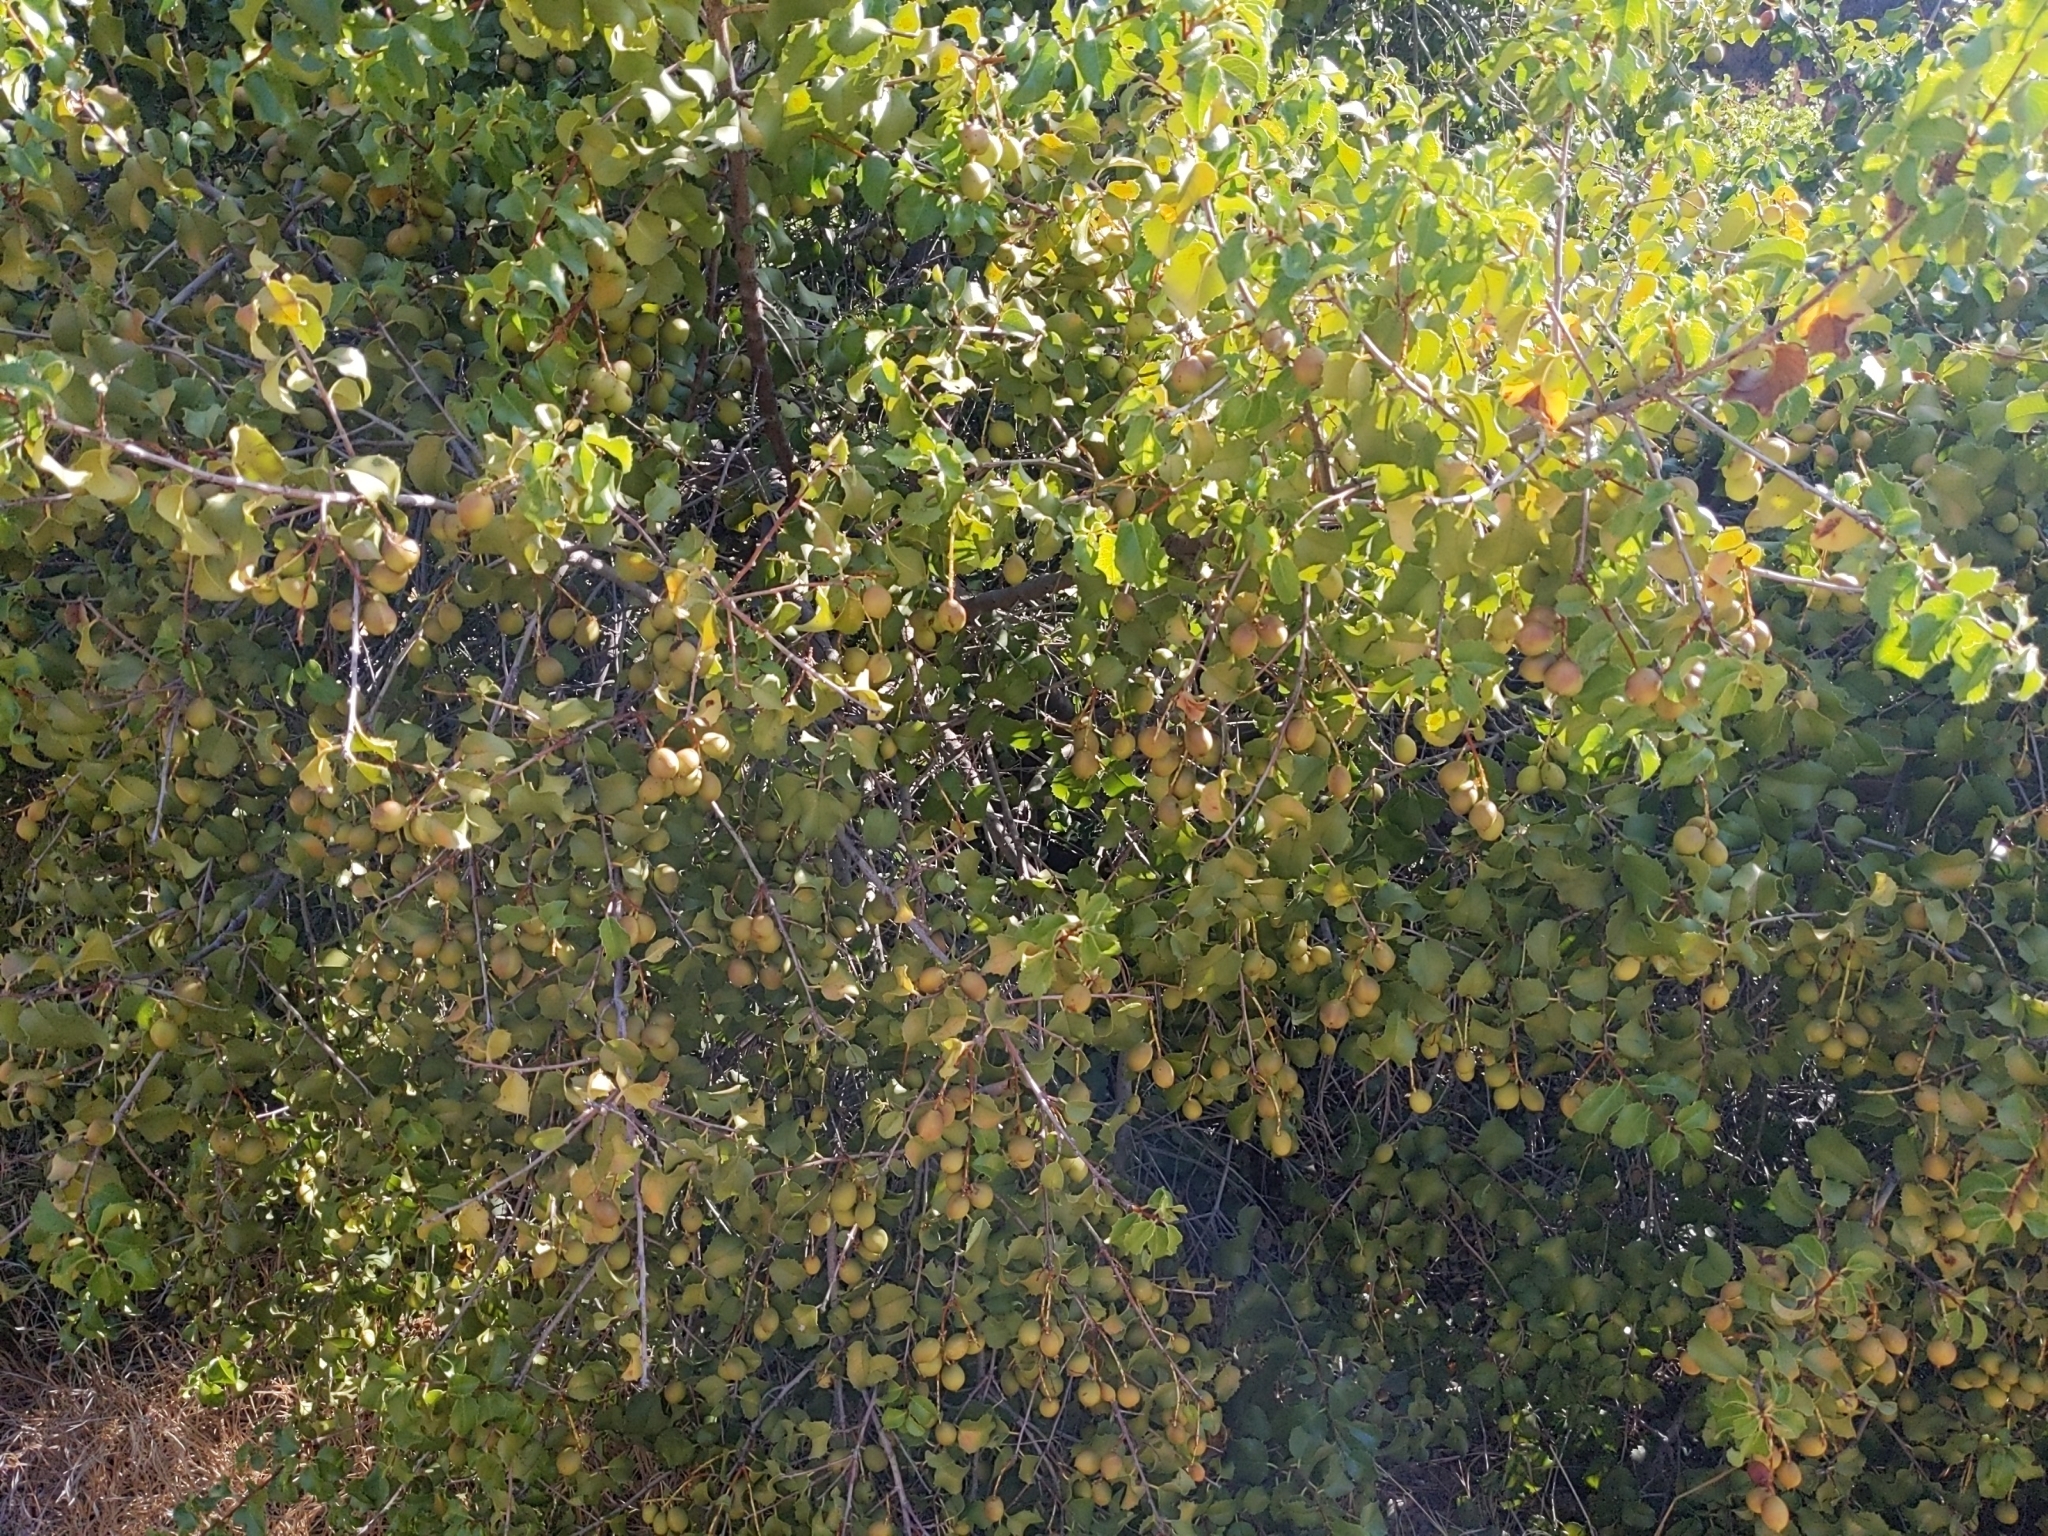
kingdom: Plantae
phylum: Tracheophyta
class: Magnoliopsida
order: Rosales
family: Rosaceae
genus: Prunus
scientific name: Prunus ilicifolia
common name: Hollyleaf cherry
